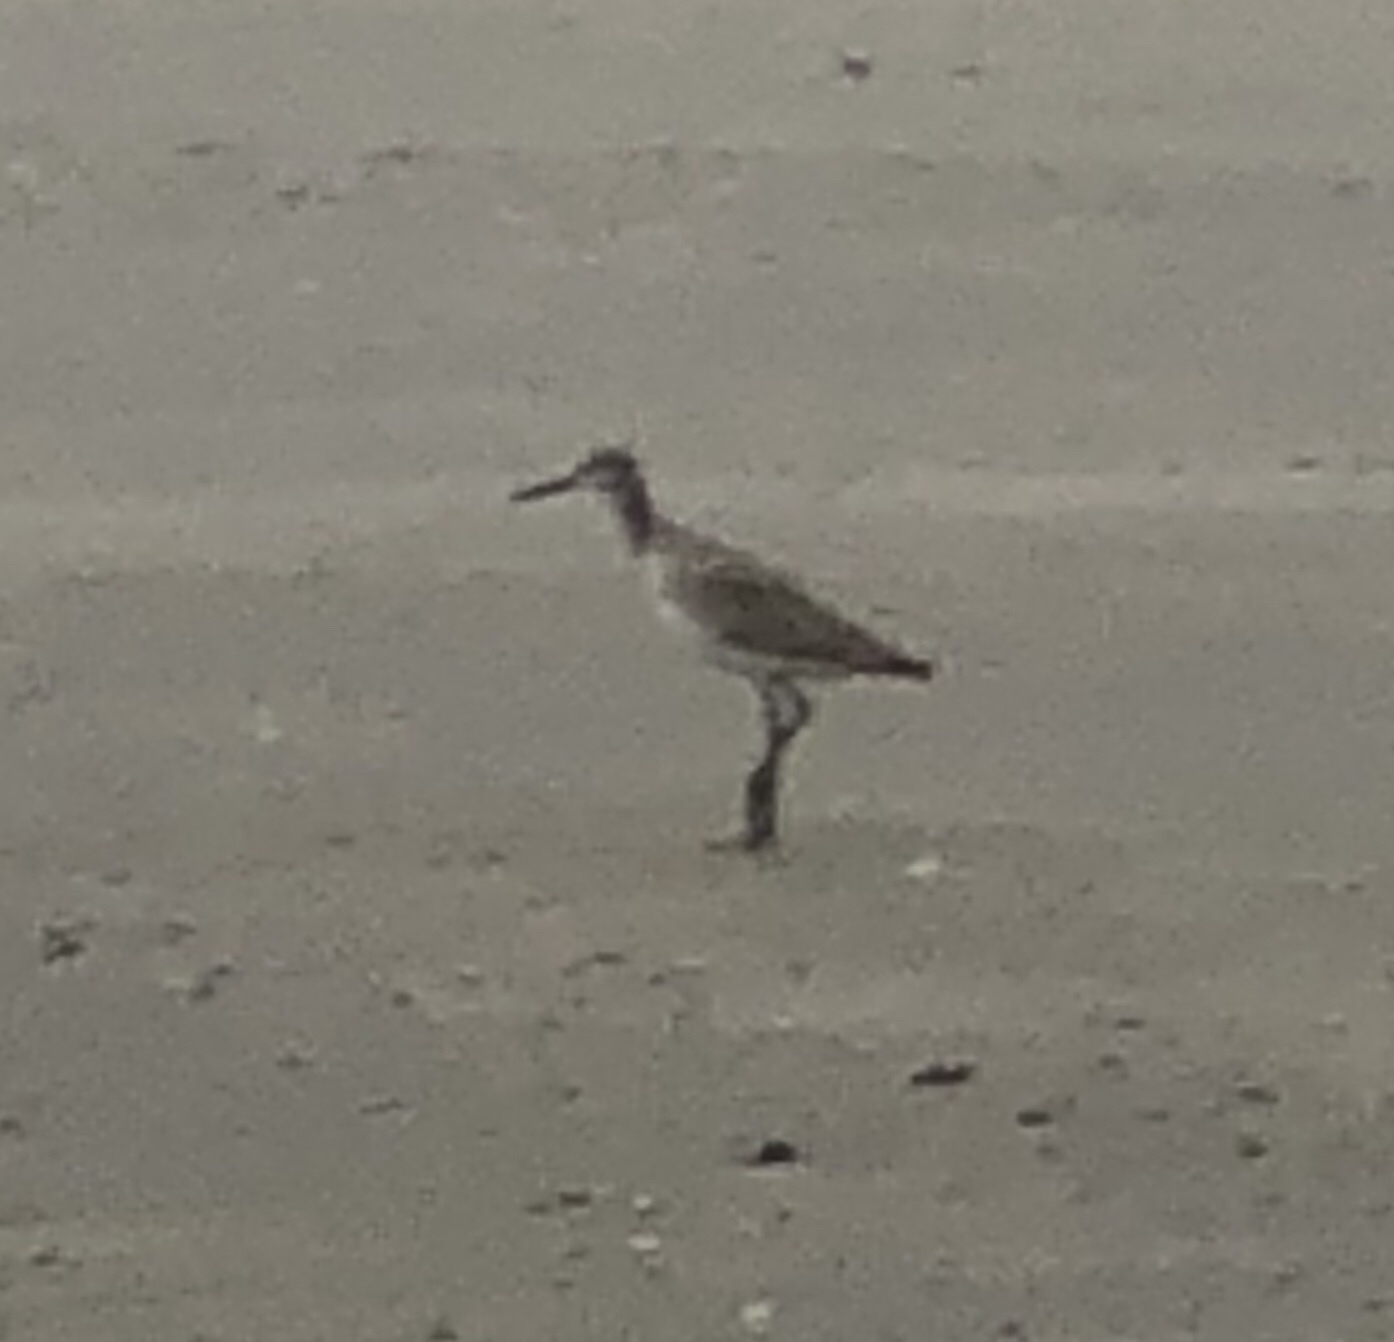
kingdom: Animalia
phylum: Chordata
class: Aves
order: Charadriiformes
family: Scolopacidae
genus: Tringa
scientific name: Tringa semipalmata
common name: Willet
